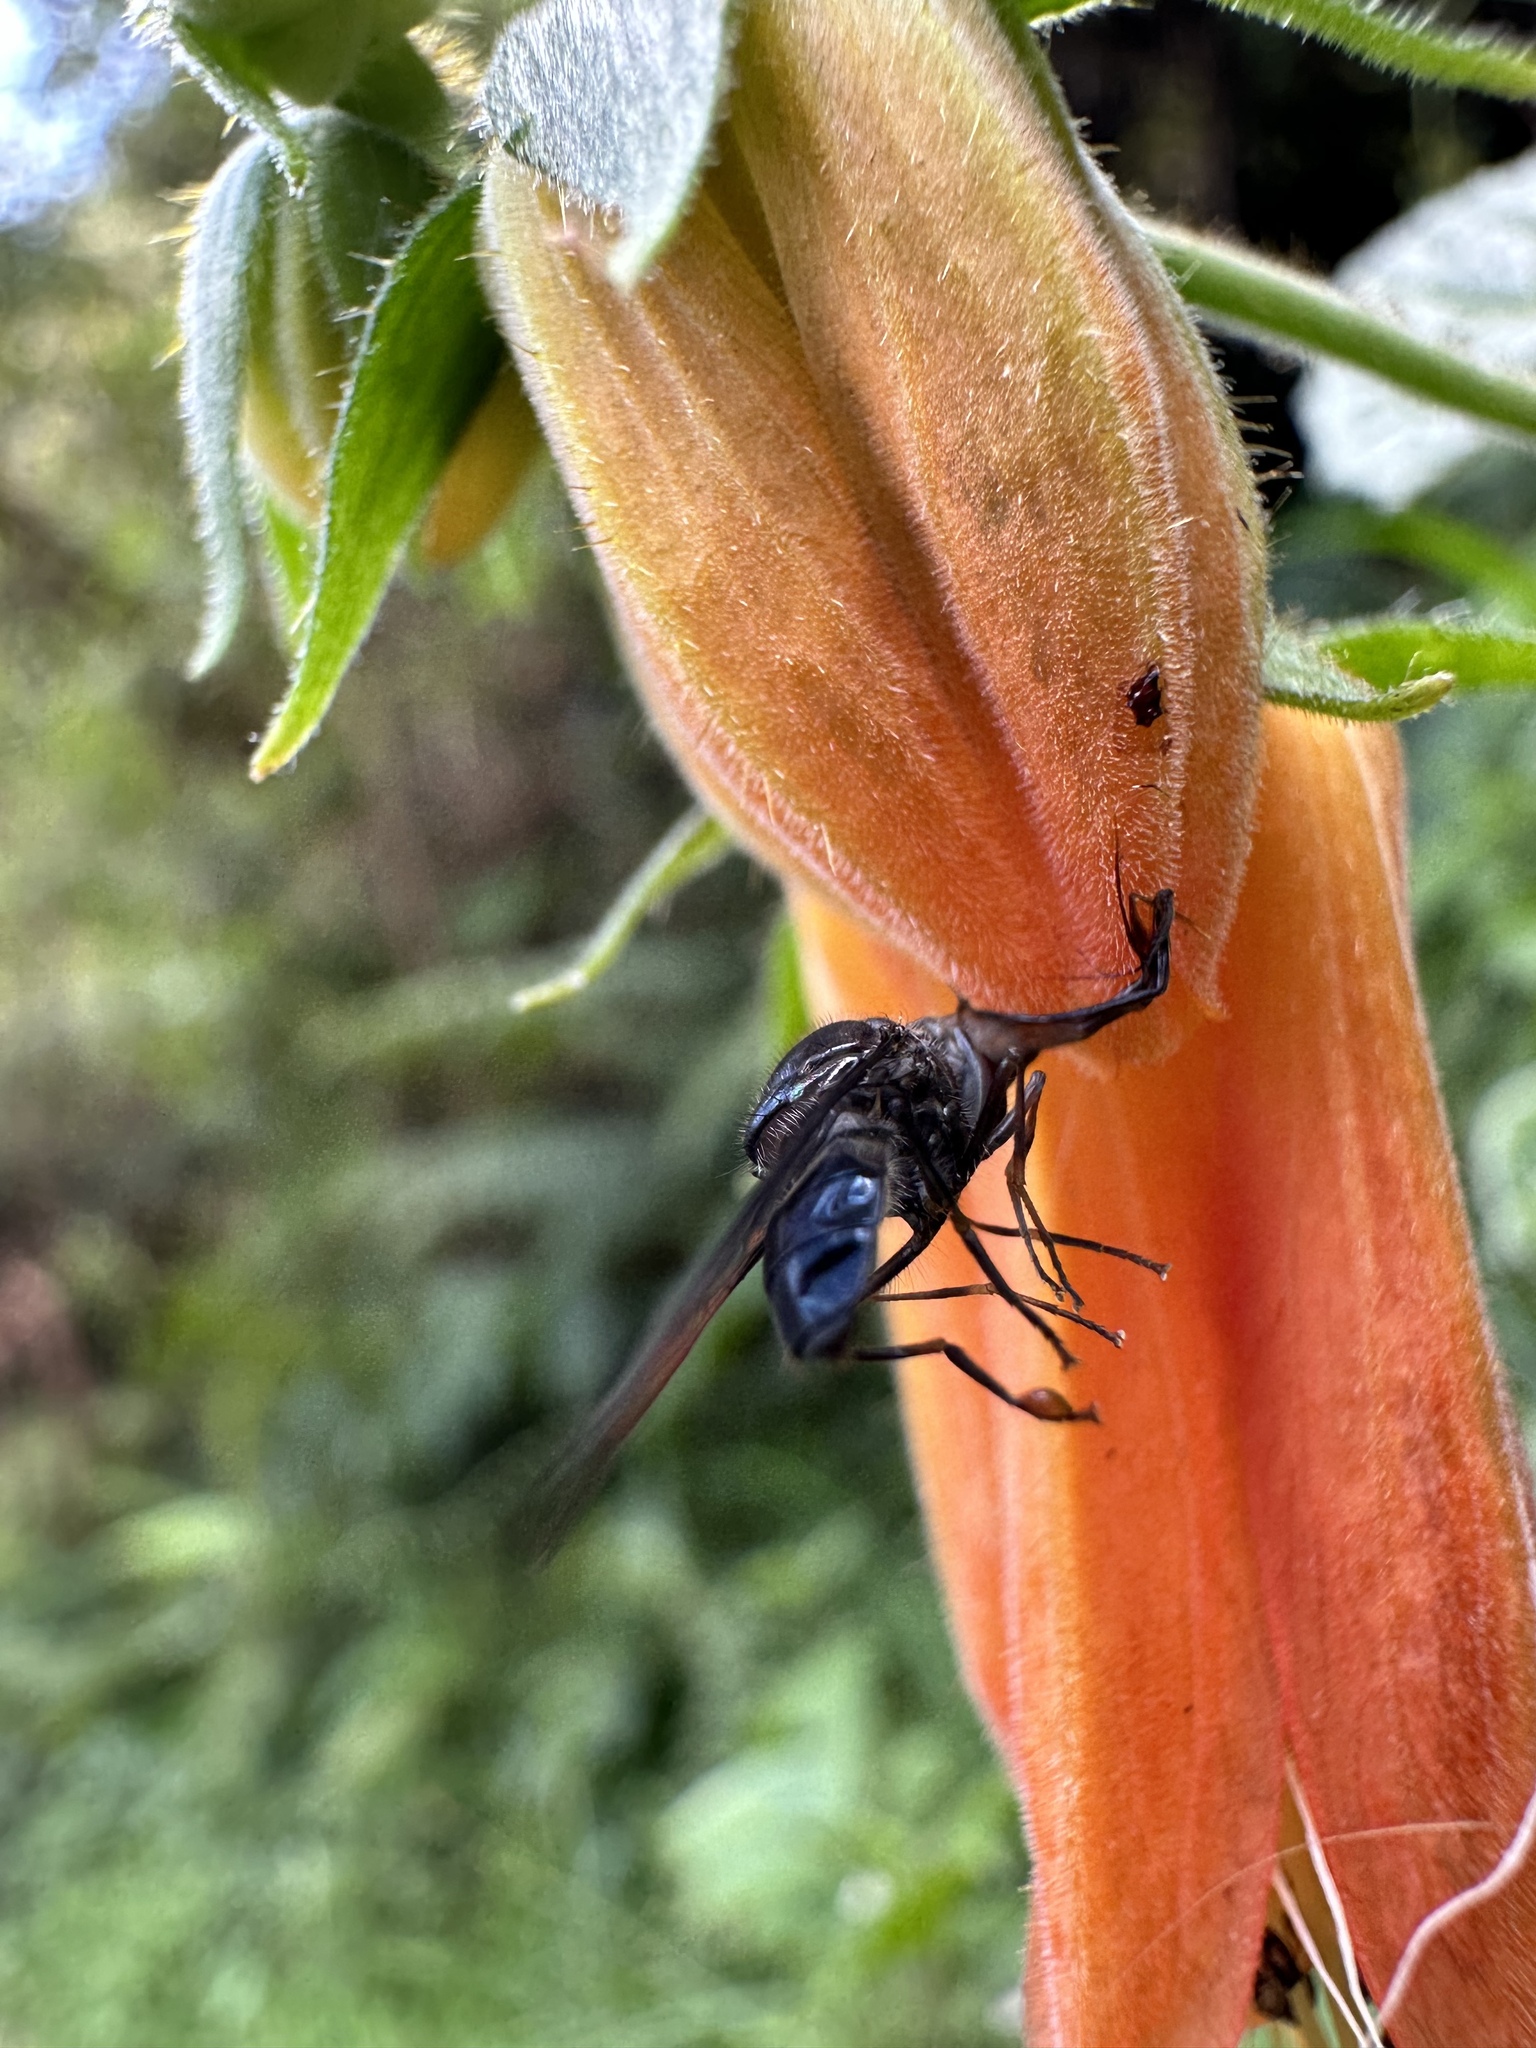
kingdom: Plantae
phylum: Tracheophyta
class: Magnoliopsida
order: Cornales
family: Loasaceae
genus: Nasa
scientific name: Nasa campaniflora
